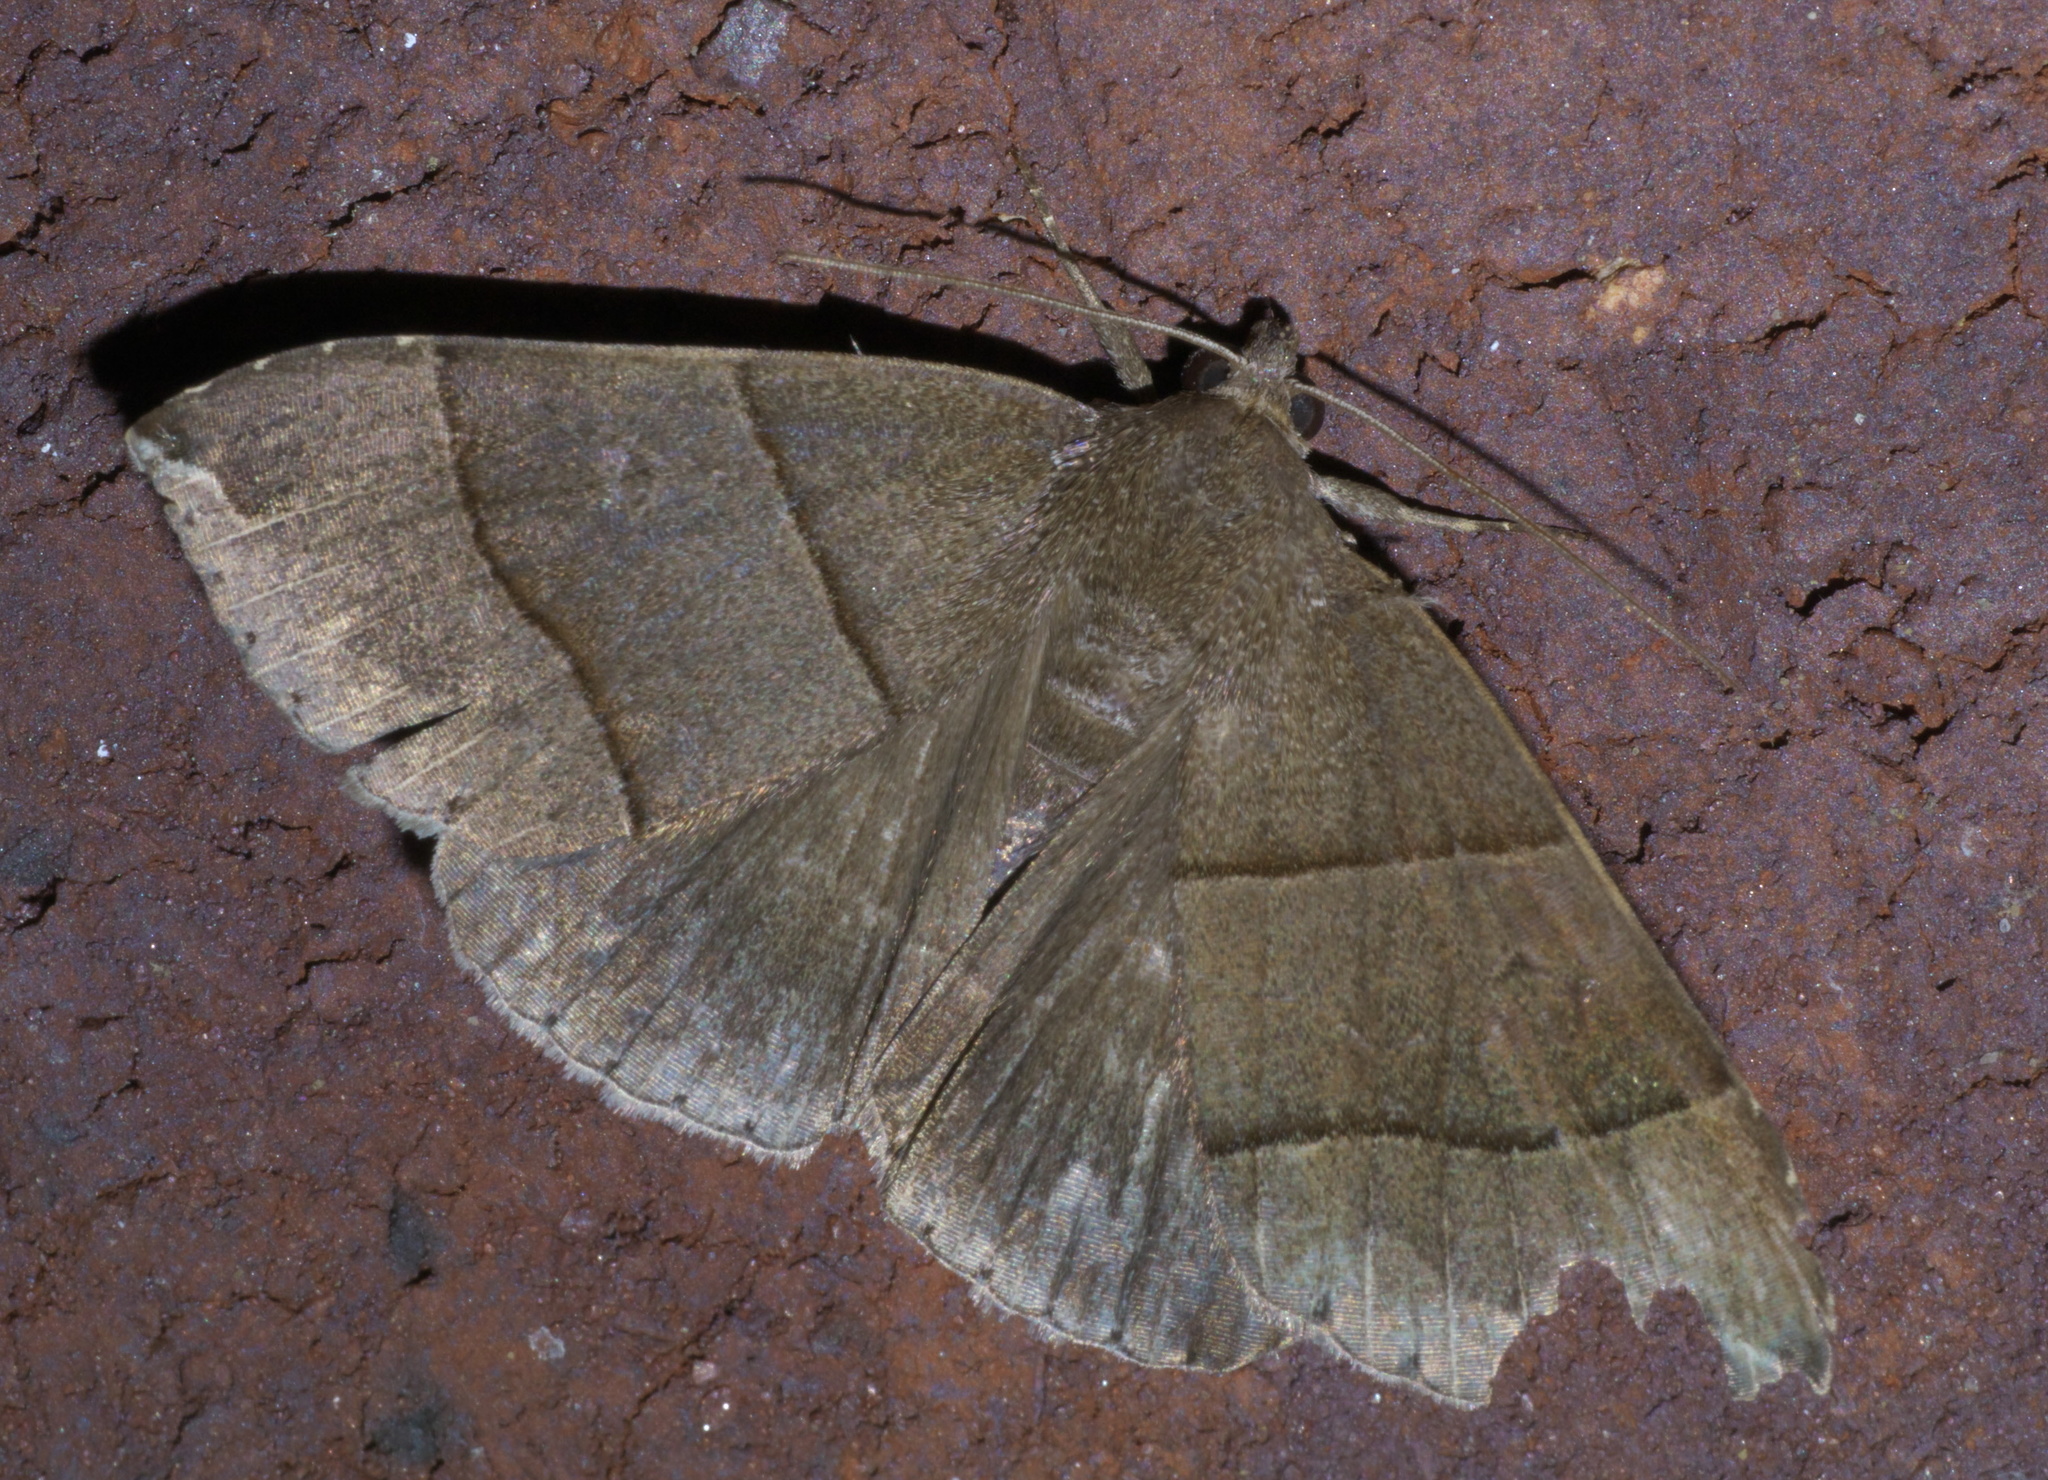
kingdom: Animalia
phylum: Arthropoda
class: Insecta
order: Lepidoptera
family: Erebidae
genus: Parallelia
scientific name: Parallelia bistriaris
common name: Maple looper moth
